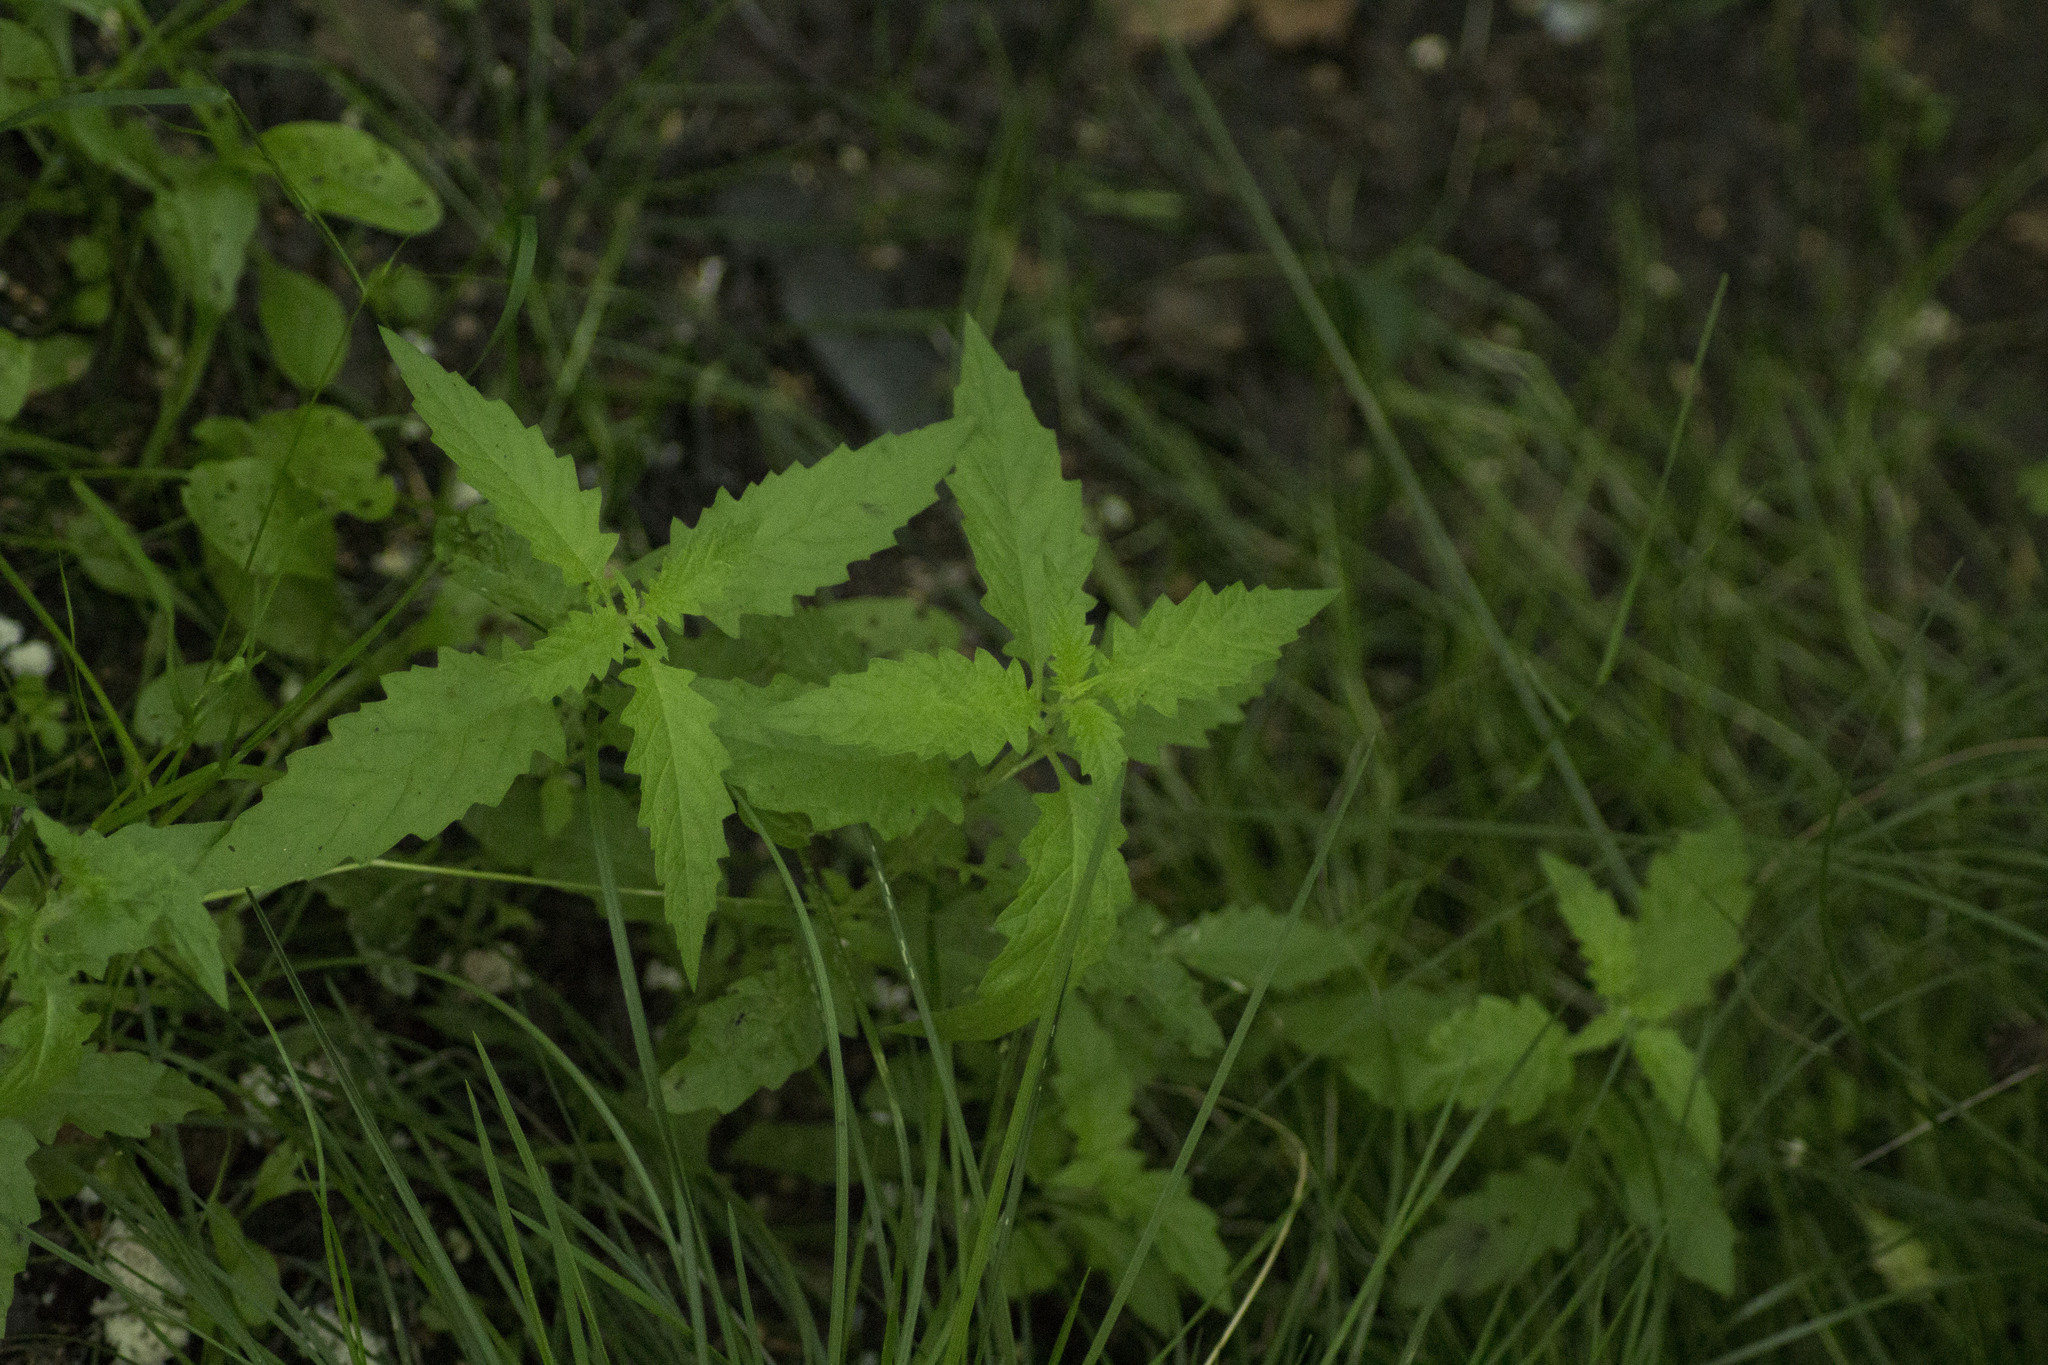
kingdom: Plantae
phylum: Tracheophyta
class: Magnoliopsida
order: Lamiales
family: Lamiaceae
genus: Lycopus
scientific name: Lycopus europaeus
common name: European bugleweed
